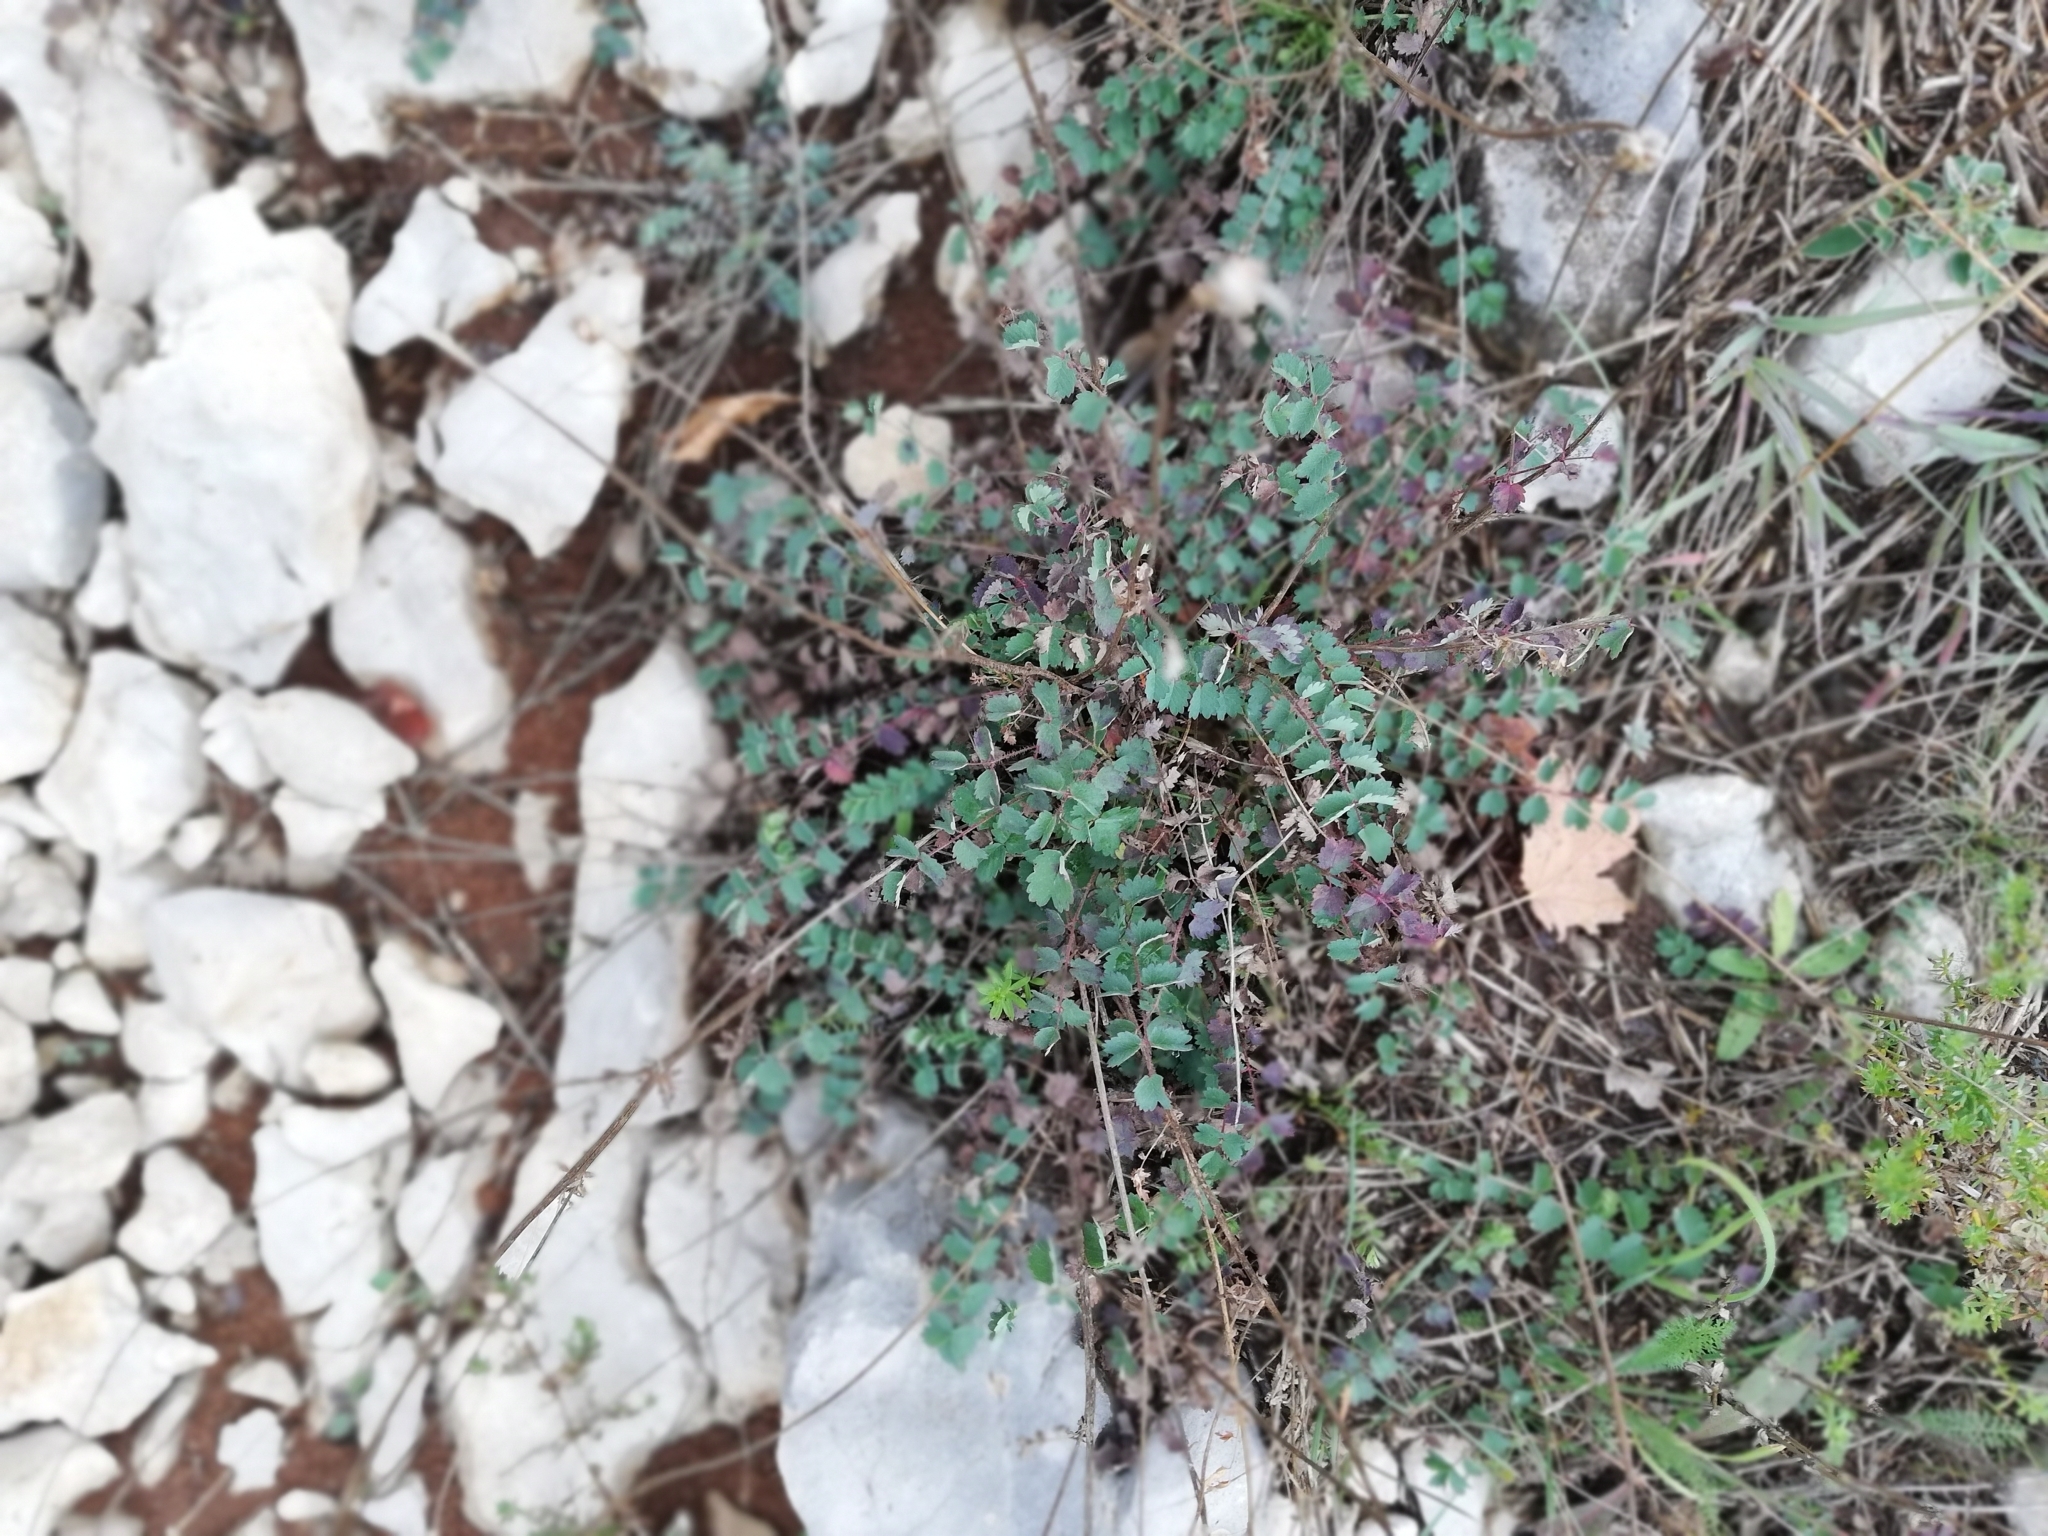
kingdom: Plantae
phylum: Tracheophyta
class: Magnoliopsida
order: Rosales
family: Rosaceae
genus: Poterium
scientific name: Poterium sanguisorba
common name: Salad burnet
